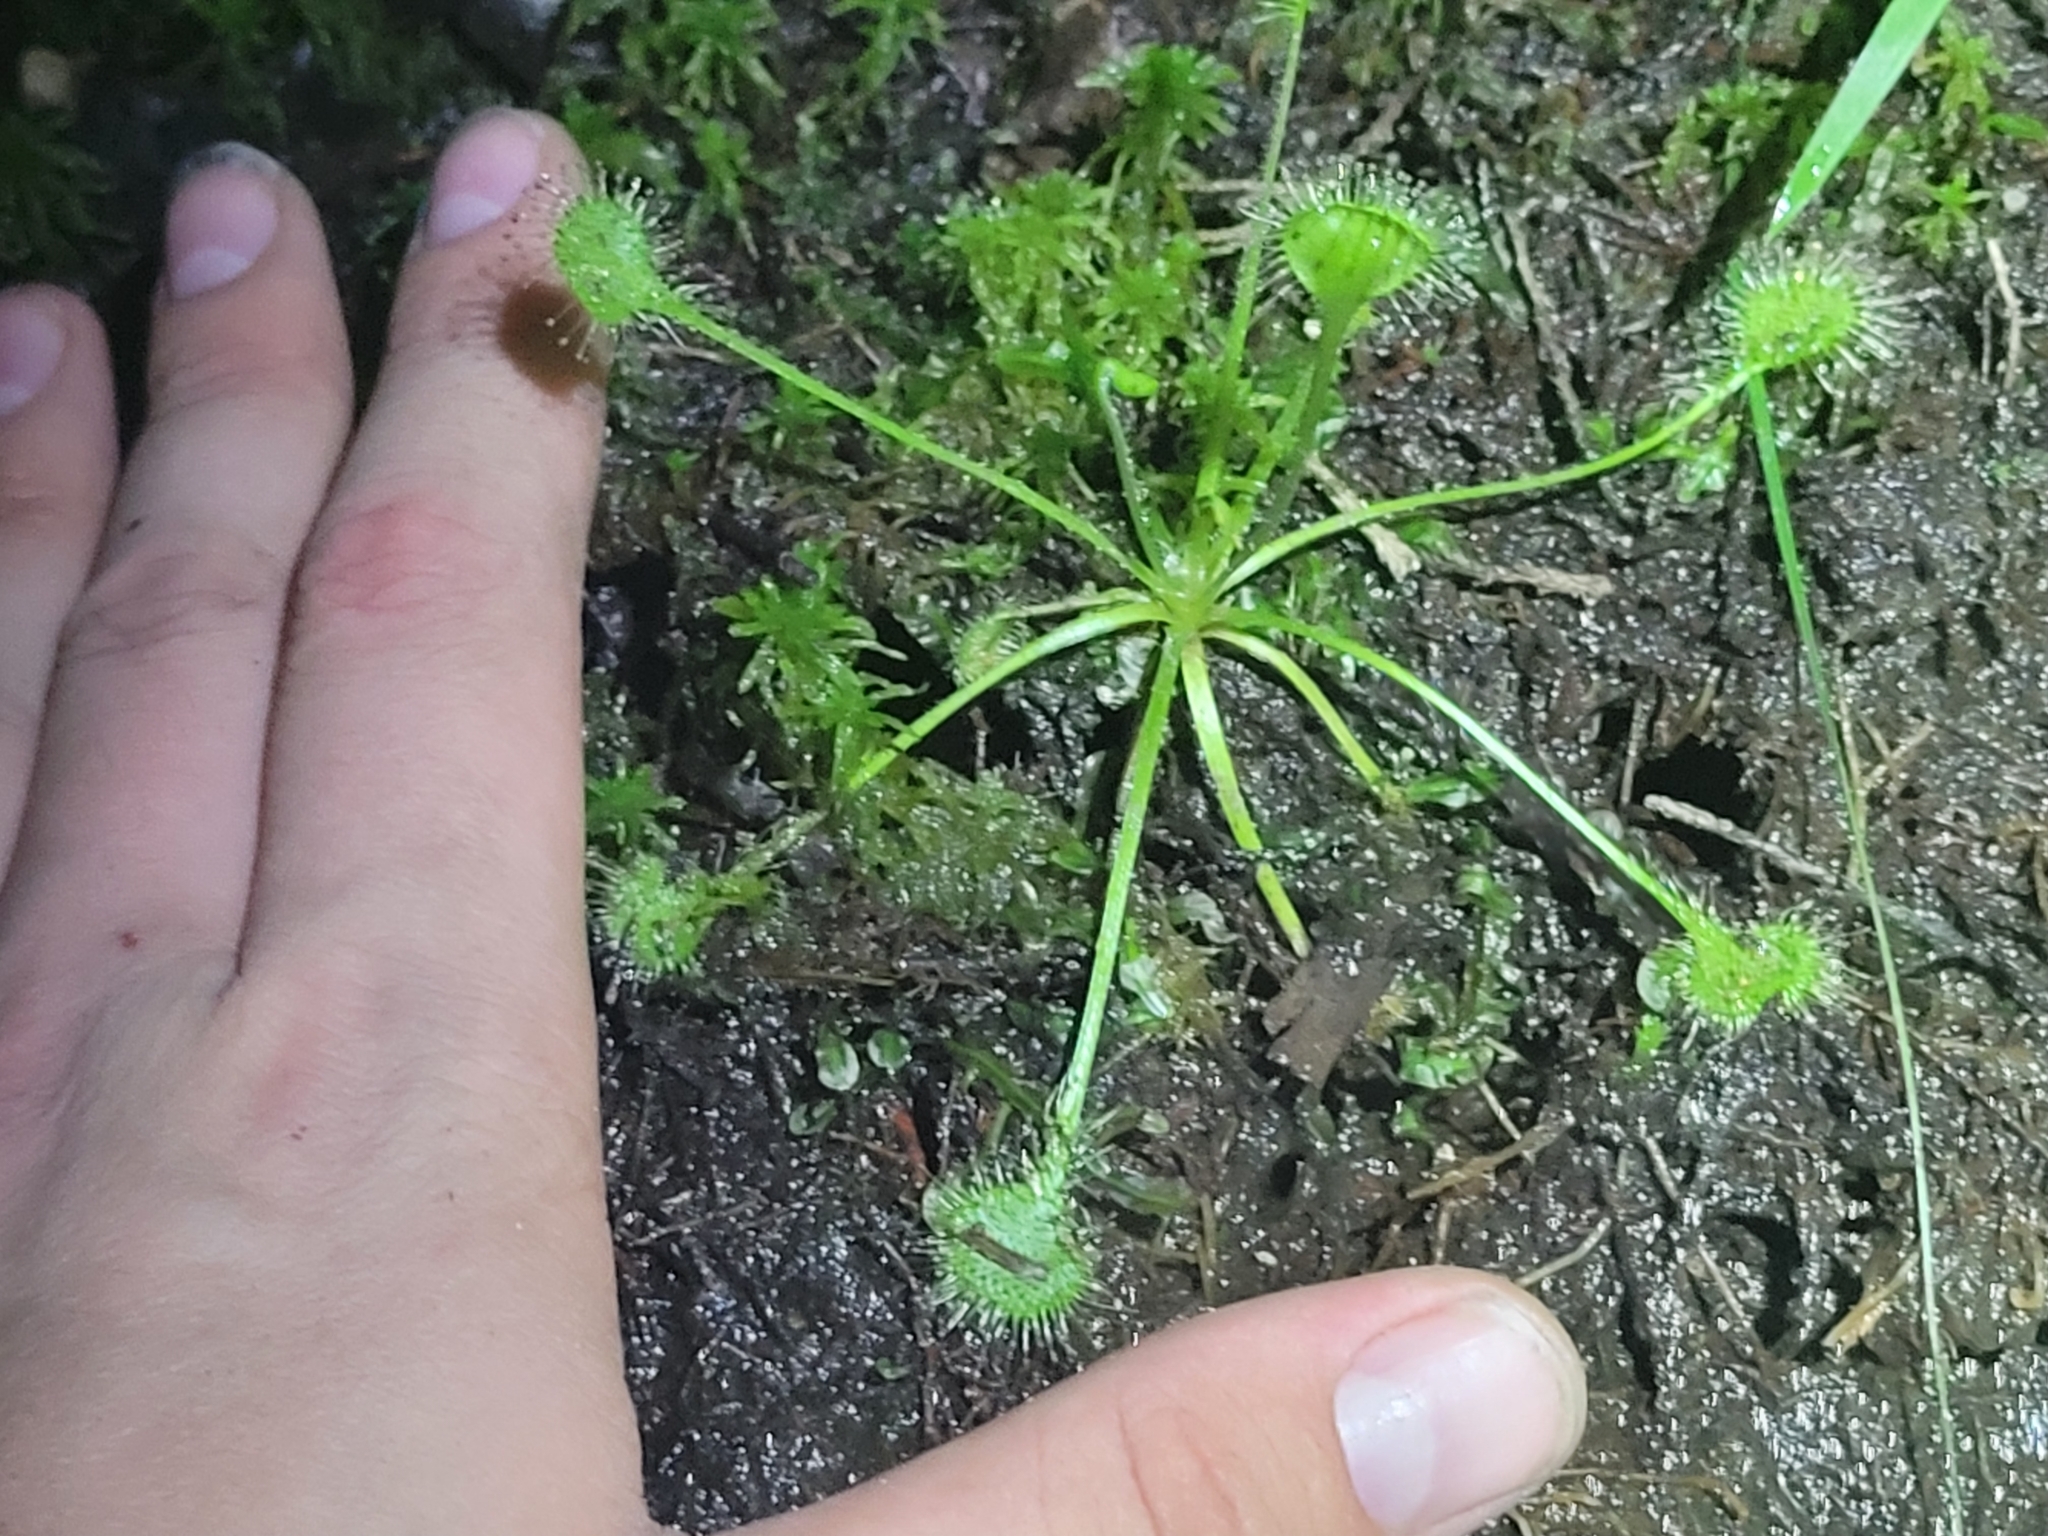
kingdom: Plantae
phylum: Tracheophyta
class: Magnoliopsida
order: Caryophyllales
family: Droseraceae
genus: Drosera
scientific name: Drosera rotundifolia
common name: Round-leaved sundew
